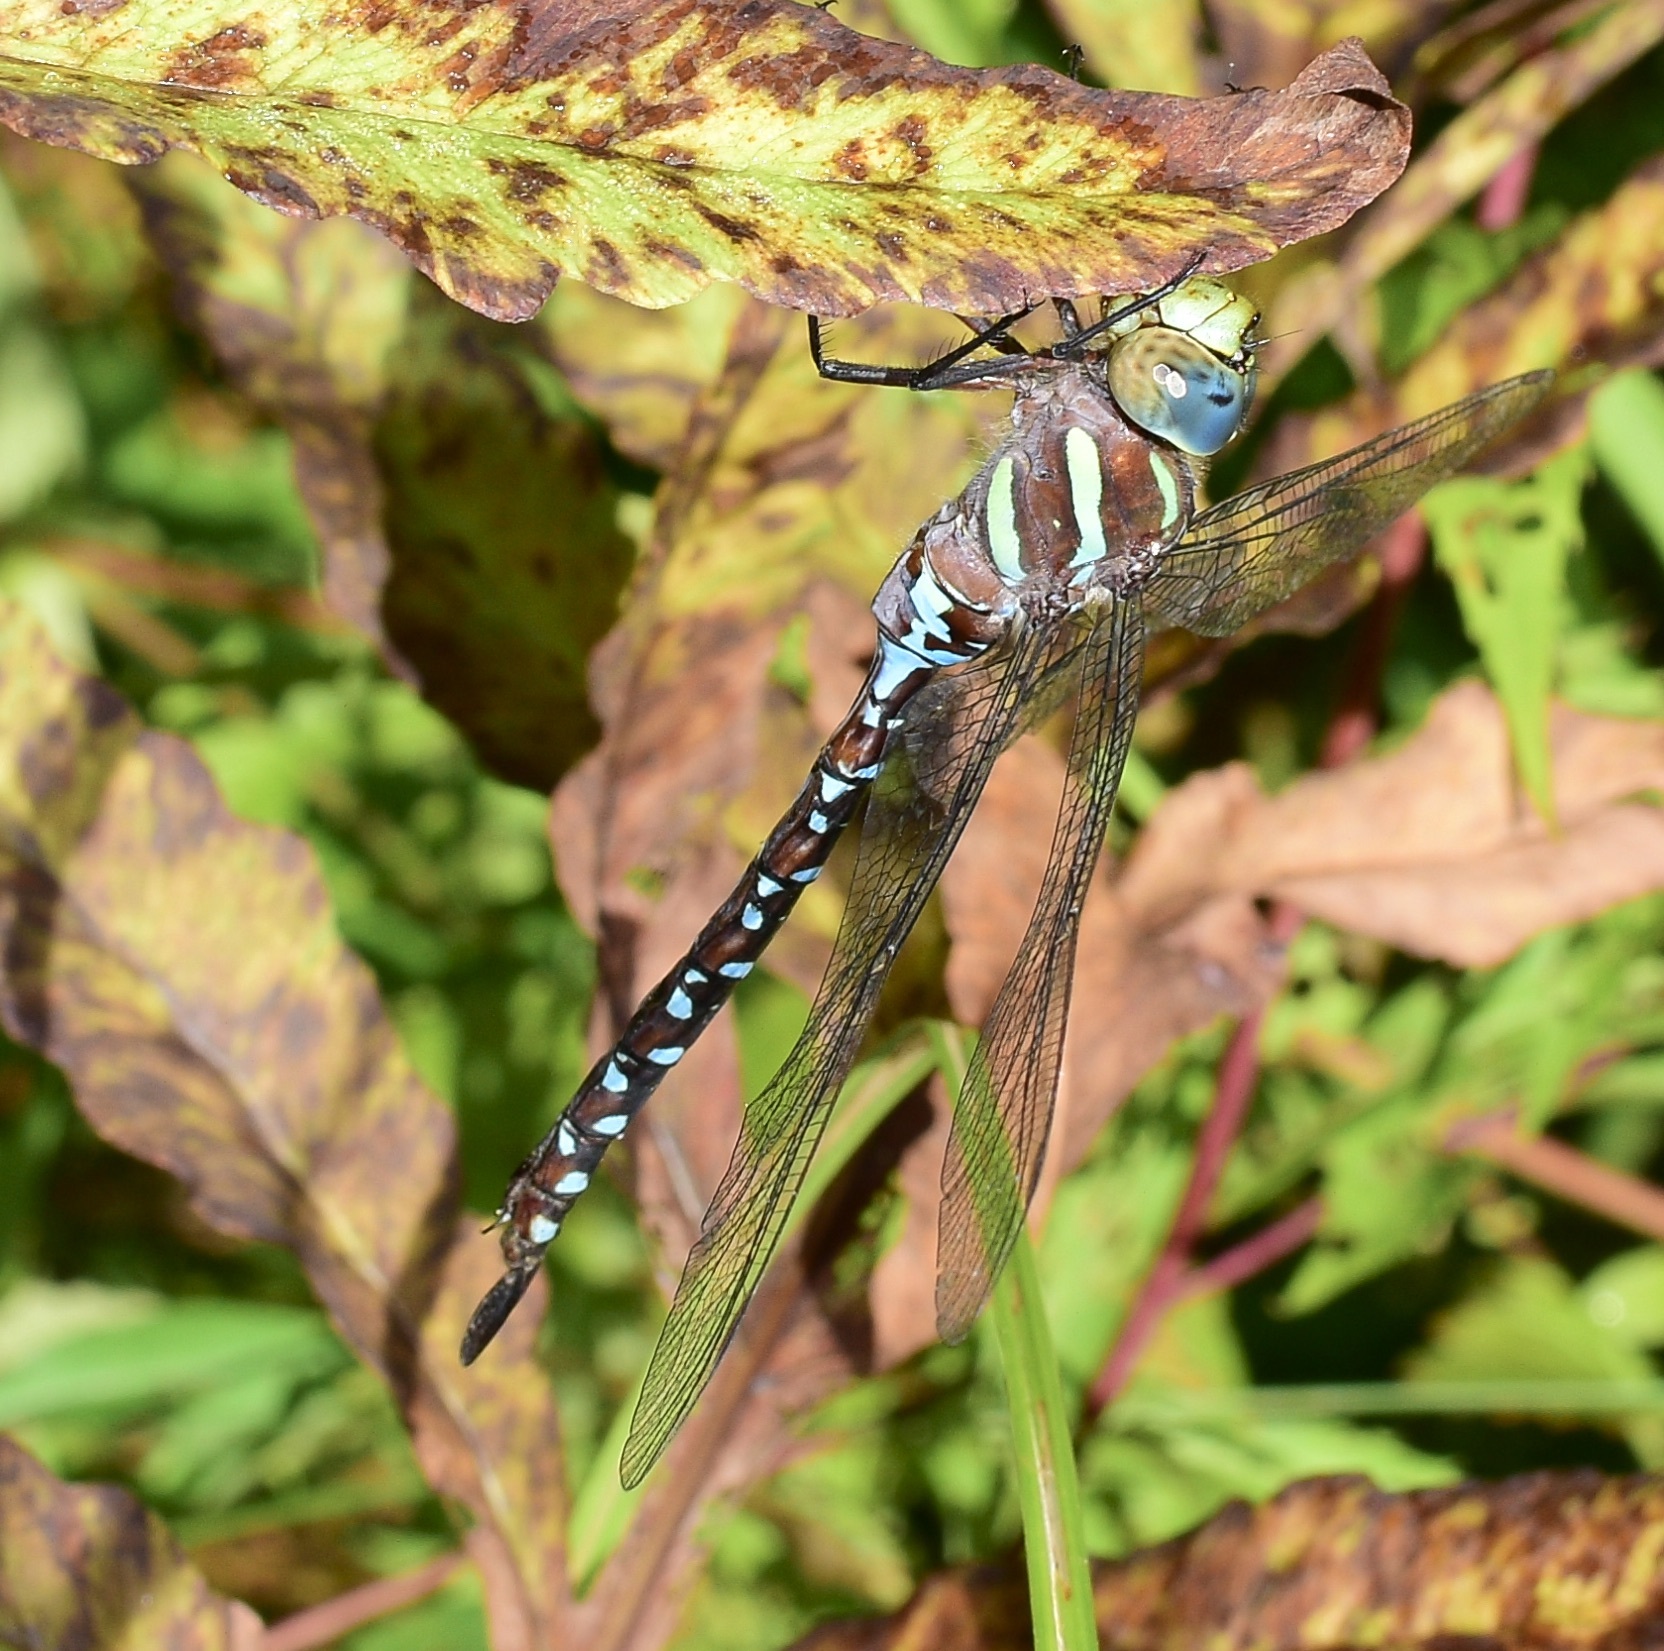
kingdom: Animalia
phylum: Arthropoda
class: Insecta
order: Odonata
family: Aeshnidae
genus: Aeshna
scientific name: Aeshna tuberculifera
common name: Aeschne à tubercules
